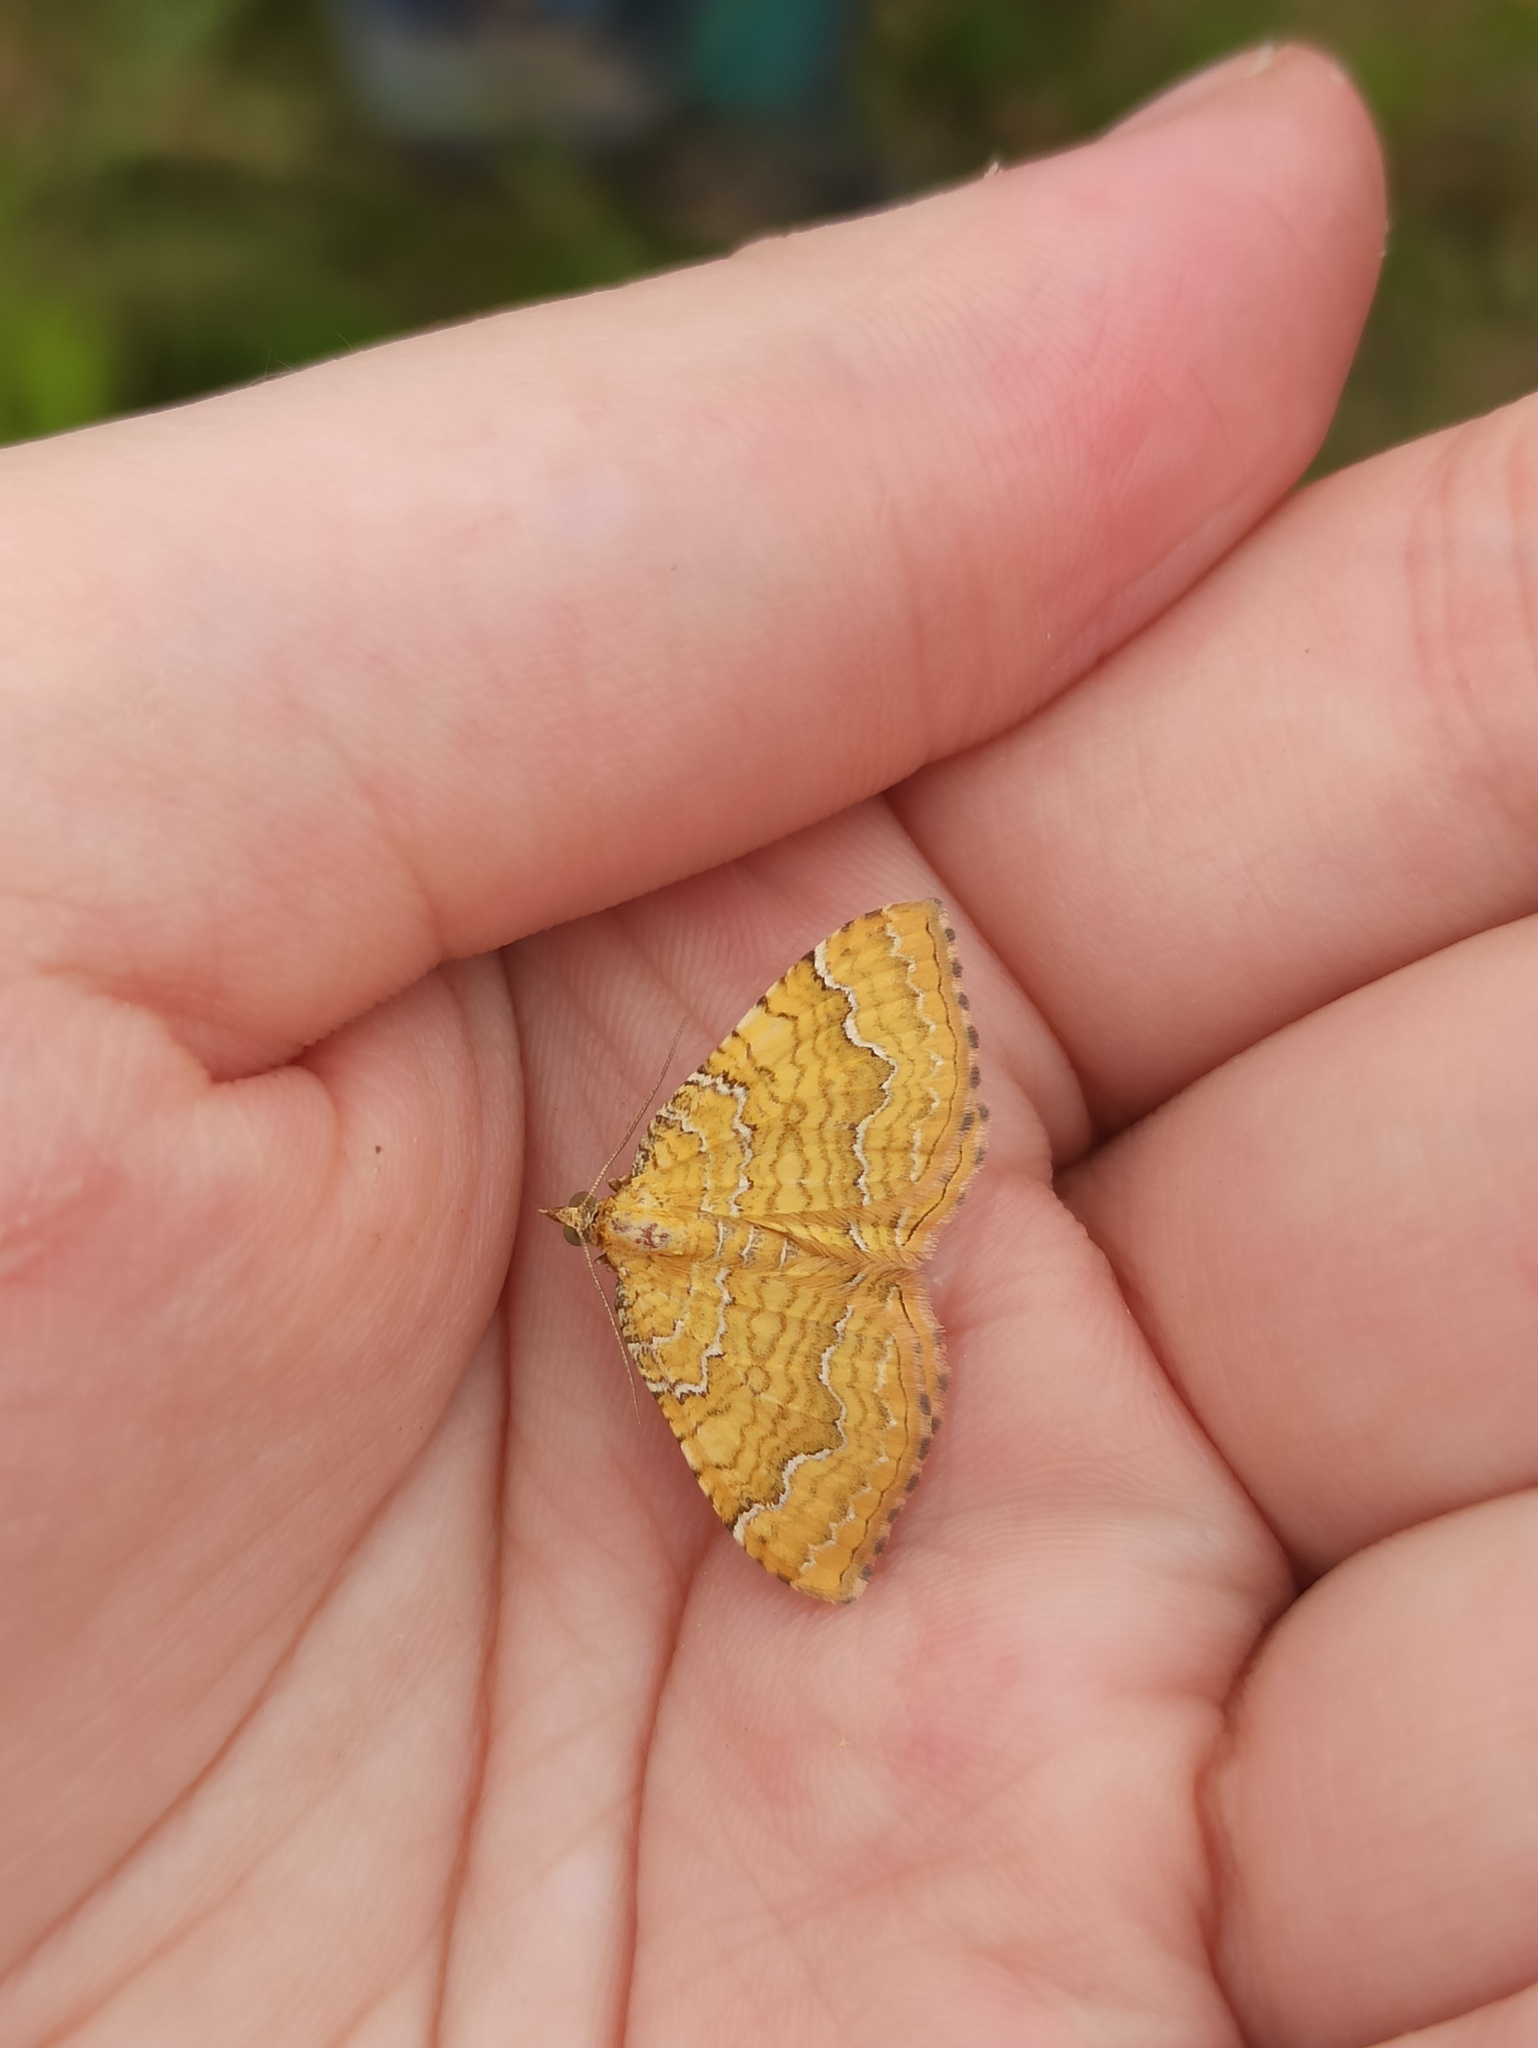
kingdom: Animalia
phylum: Arthropoda
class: Insecta
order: Lepidoptera
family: Geometridae
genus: Camptogramma
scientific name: Camptogramma bilineata
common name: Yellow shell
